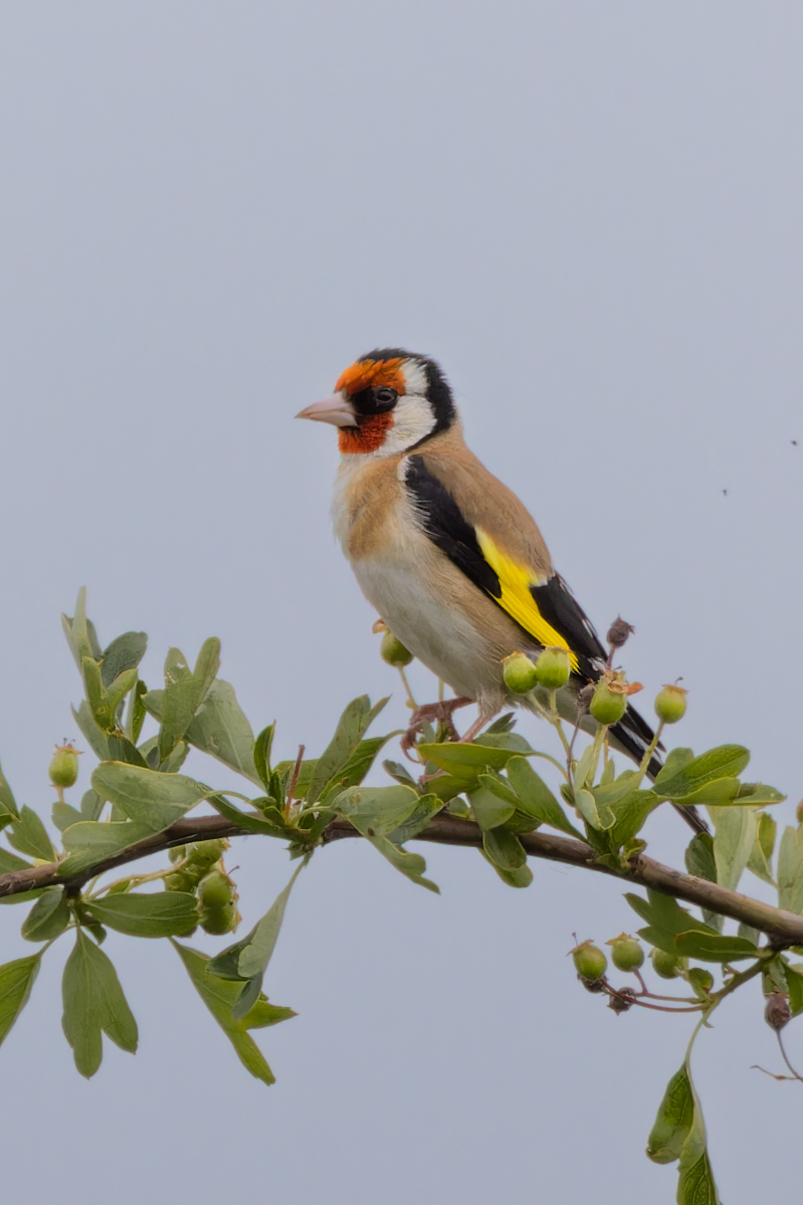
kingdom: Animalia
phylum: Chordata
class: Aves
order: Passeriformes
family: Fringillidae
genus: Carduelis
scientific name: Carduelis carduelis
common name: European goldfinch
